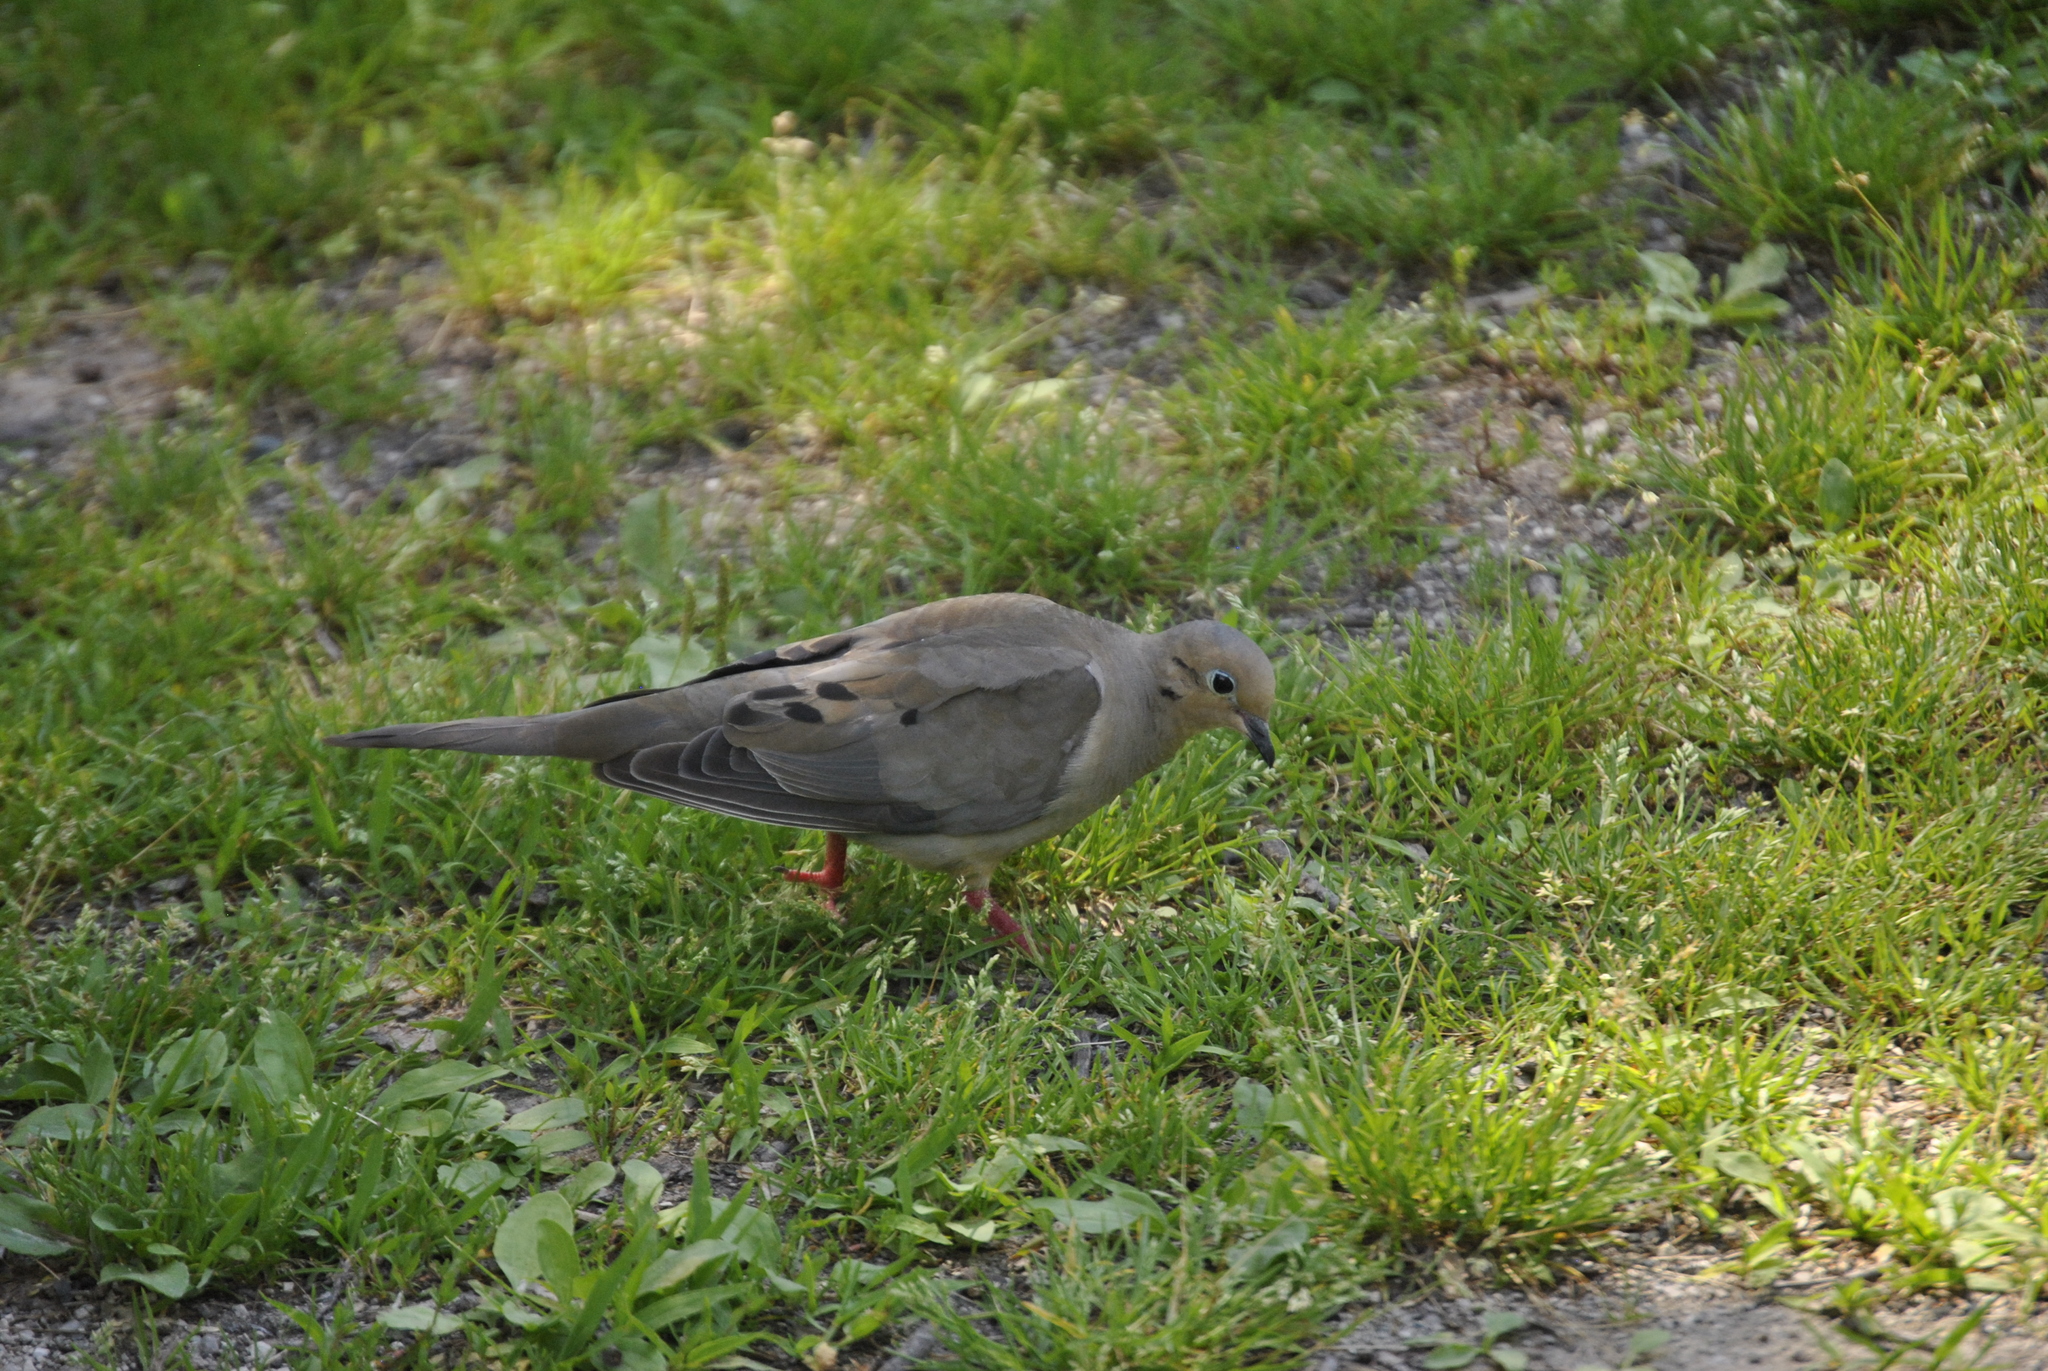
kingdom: Animalia
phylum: Chordata
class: Aves
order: Columbiformes
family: Columbidae
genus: Zenaida
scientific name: Zenaida macroura
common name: Mourning dove
